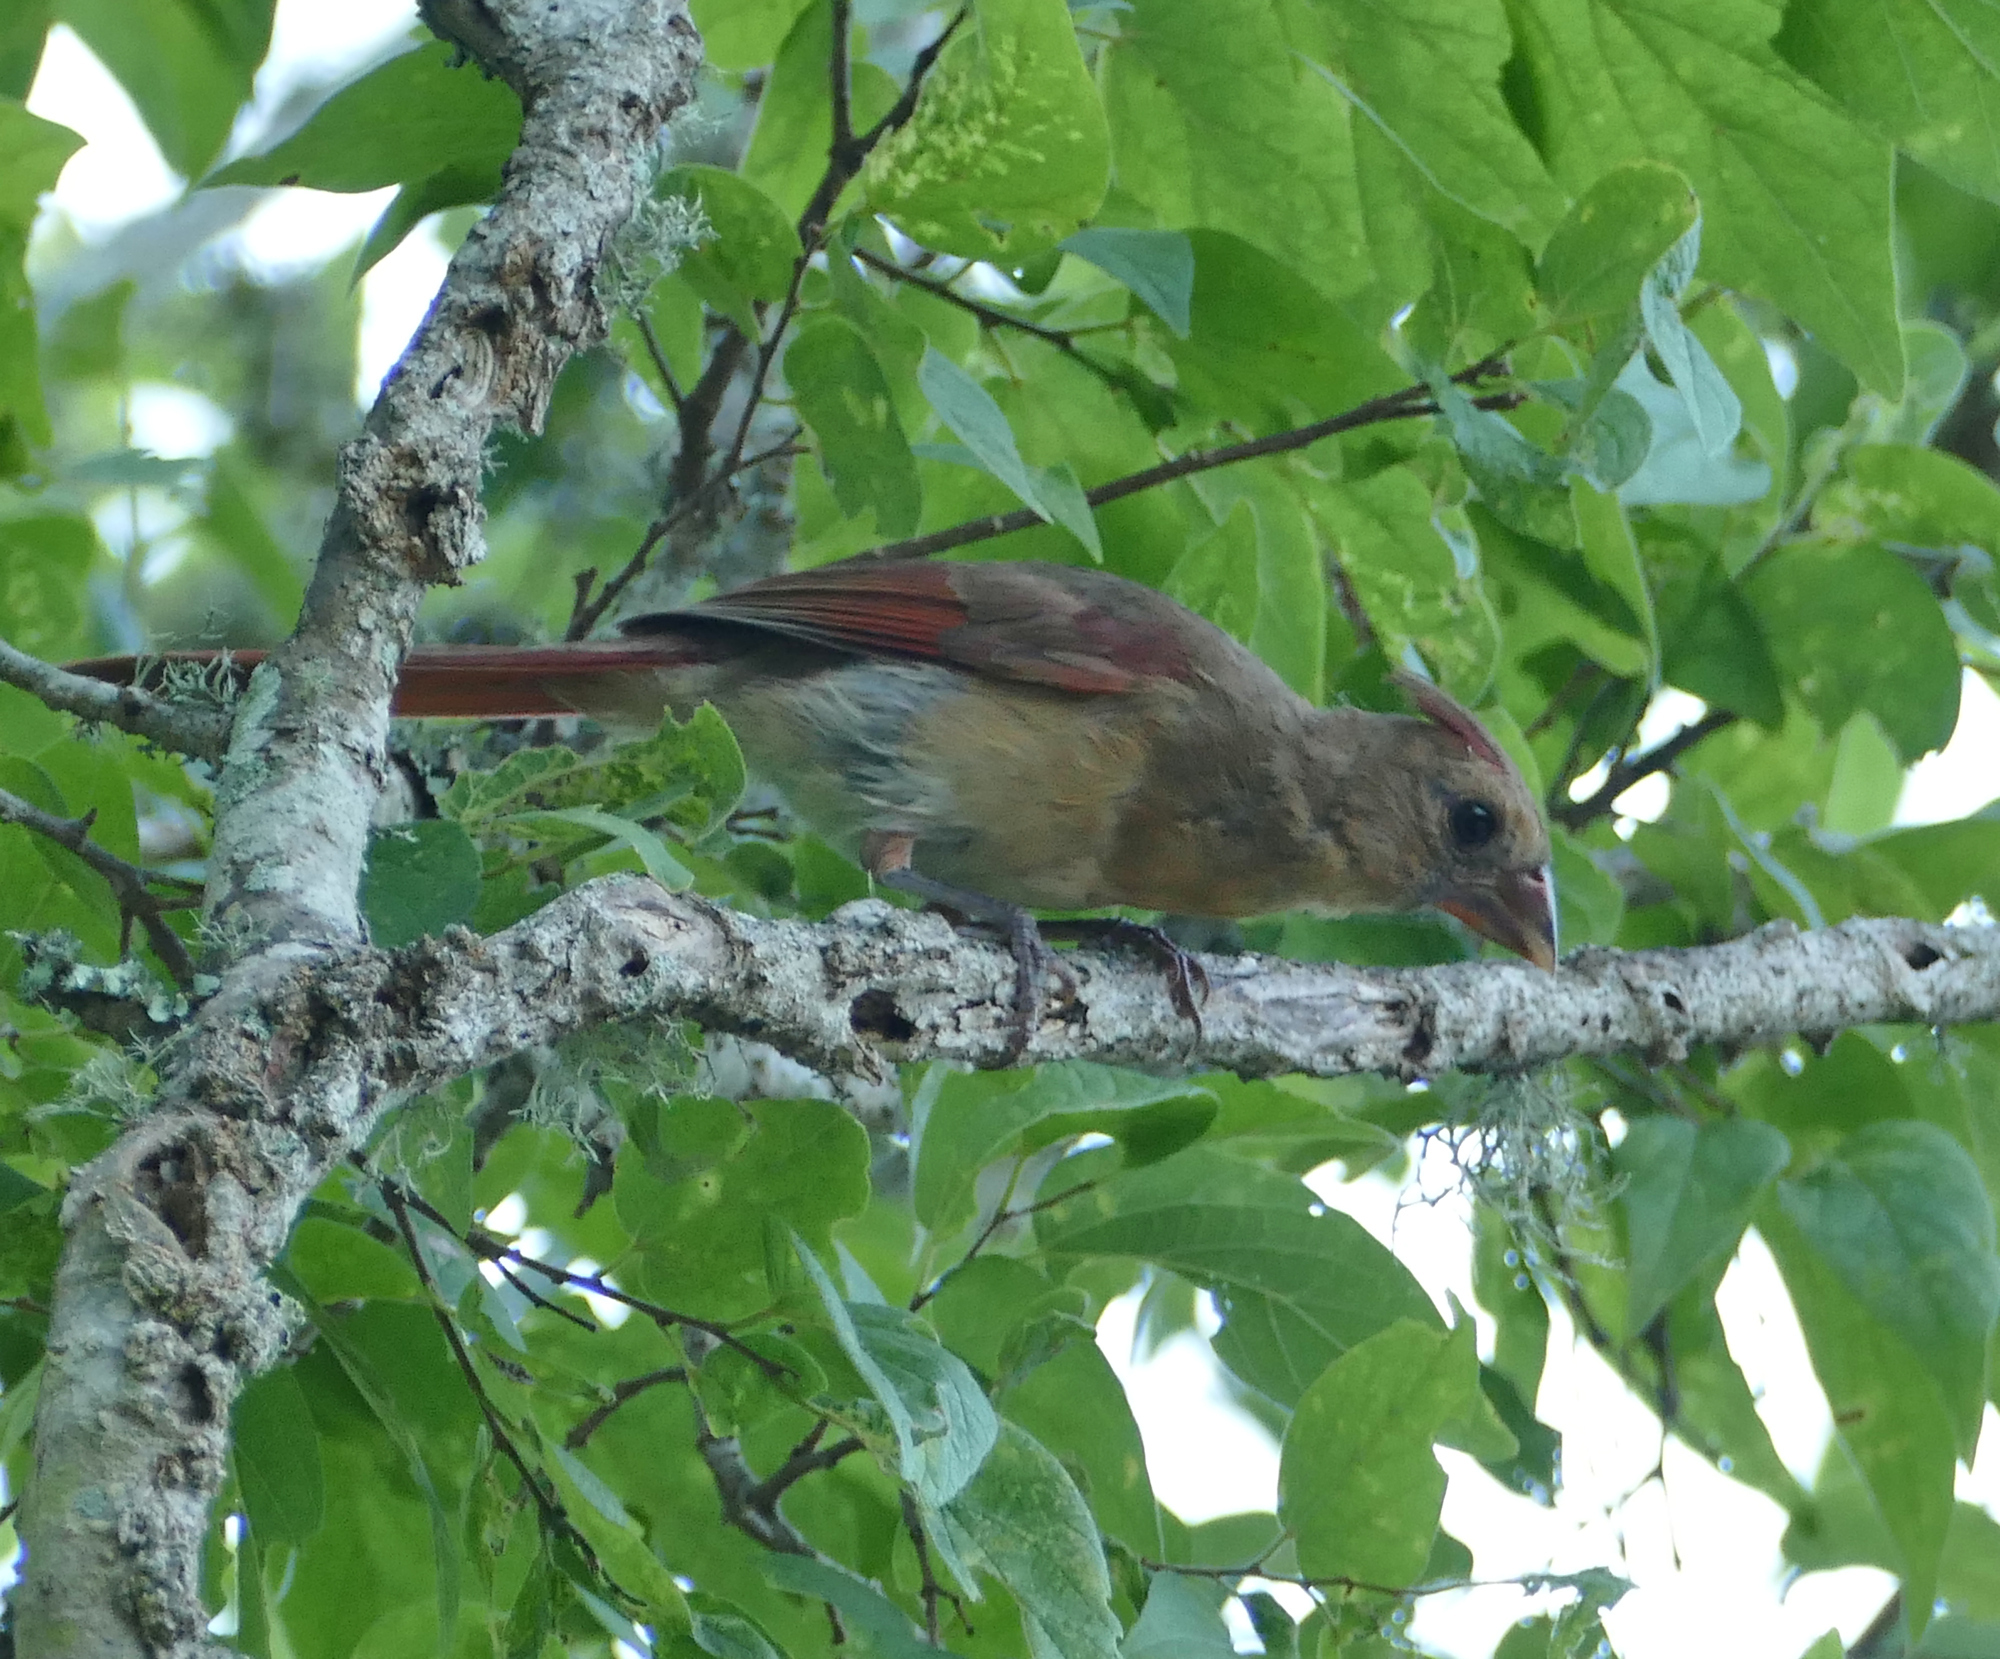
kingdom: Animalia
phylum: Chordata
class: Aves
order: Passeriformes
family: Cardinalidae
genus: Cardinalis
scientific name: Cardinalis cardinalis
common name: Northern cardinal
